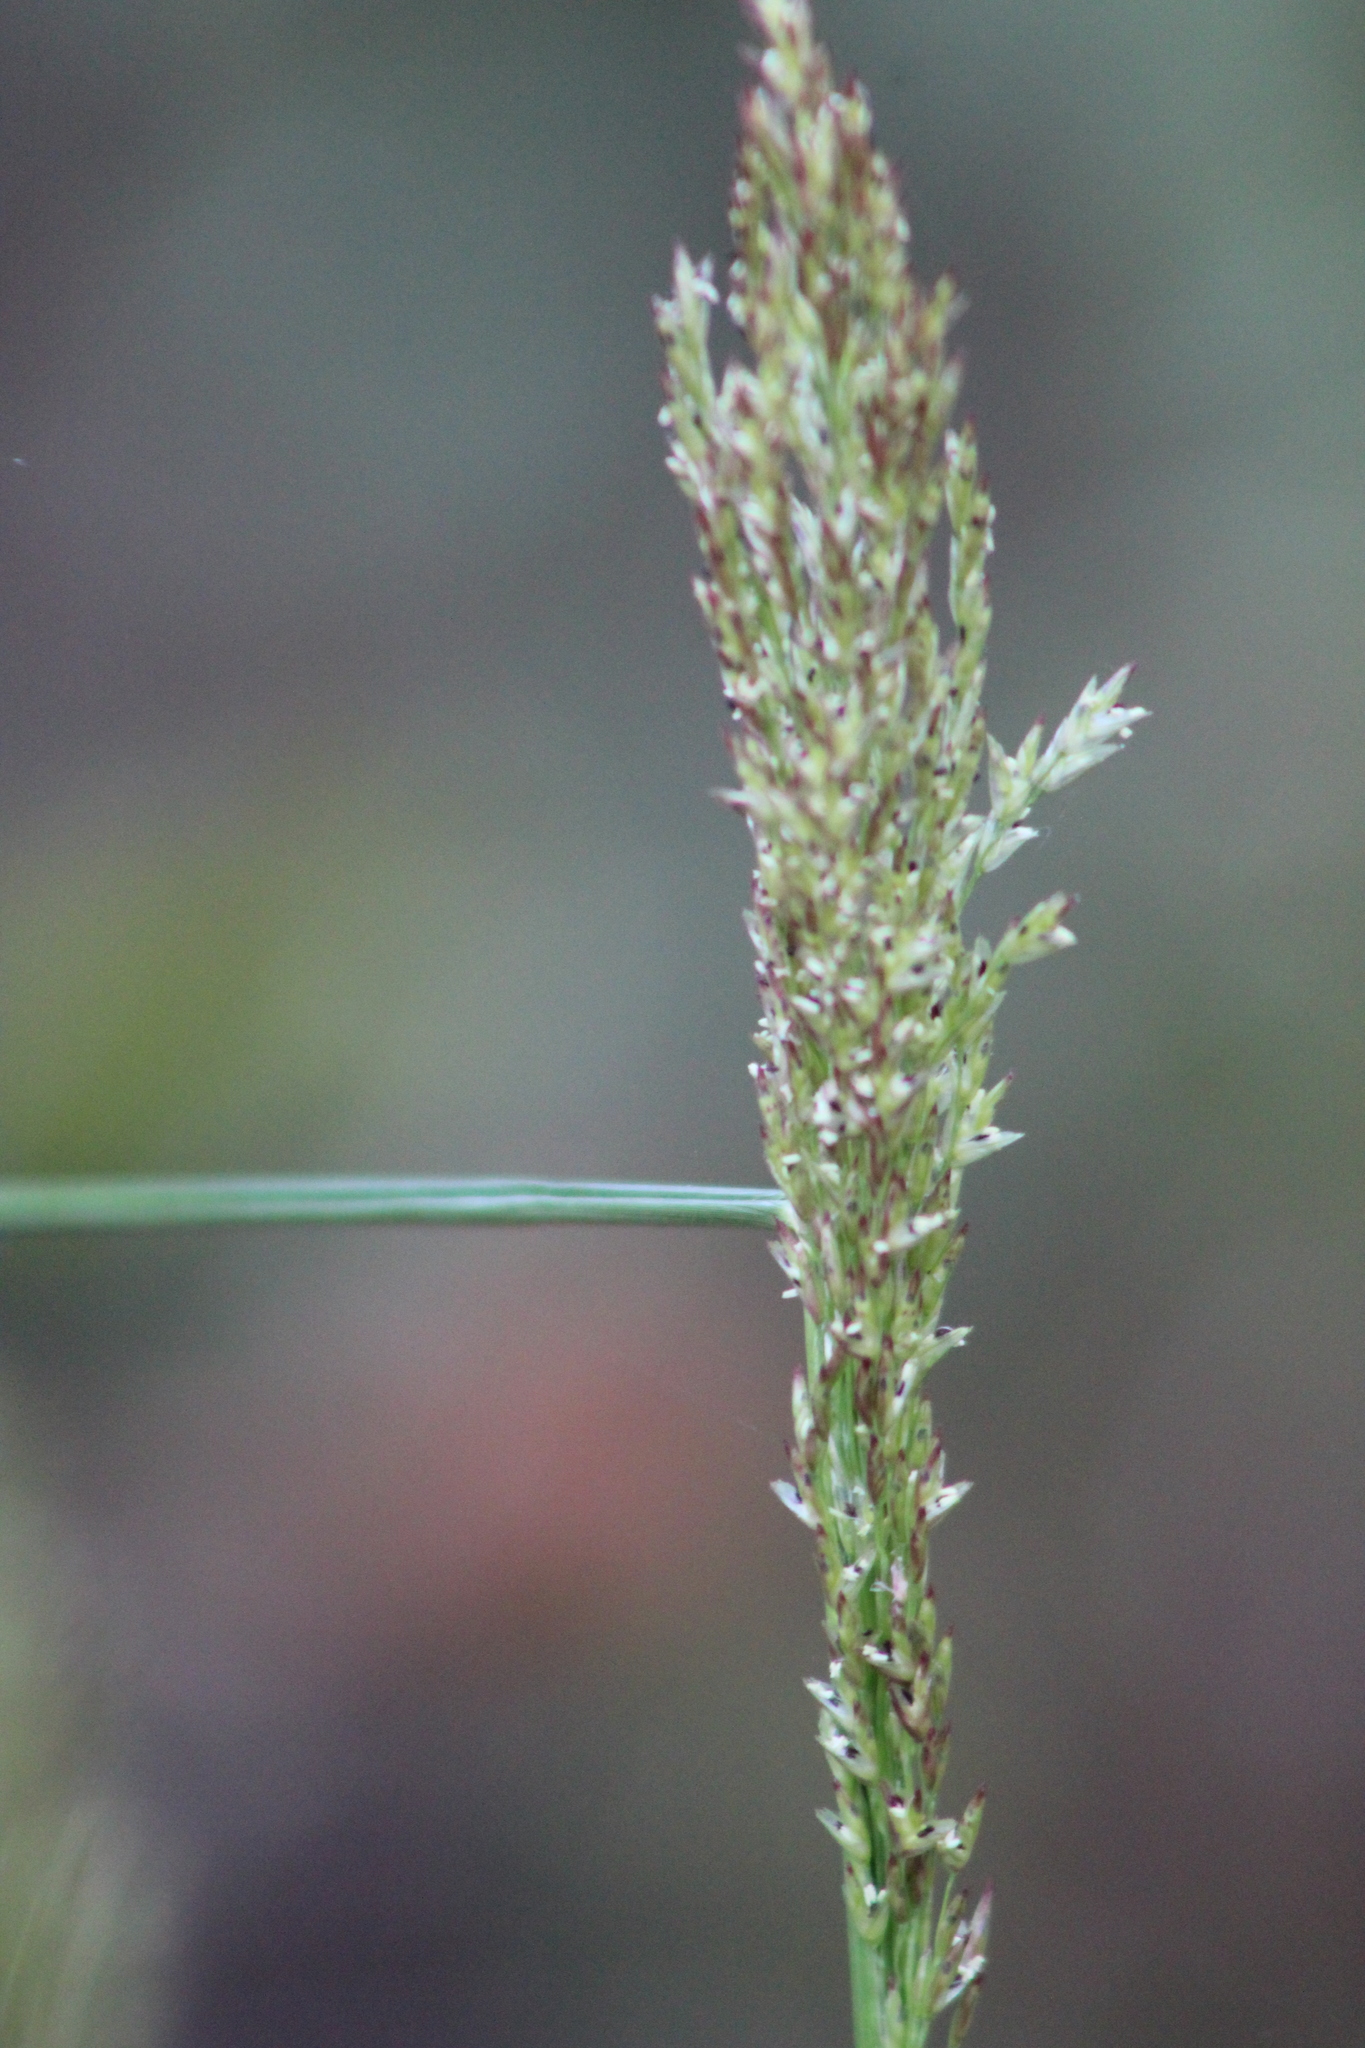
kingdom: Plantae
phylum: Tracheophyta
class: Liliopsida
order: Poales
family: Poaceae
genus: Tridens
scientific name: Tridens flavus
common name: Purpletop
